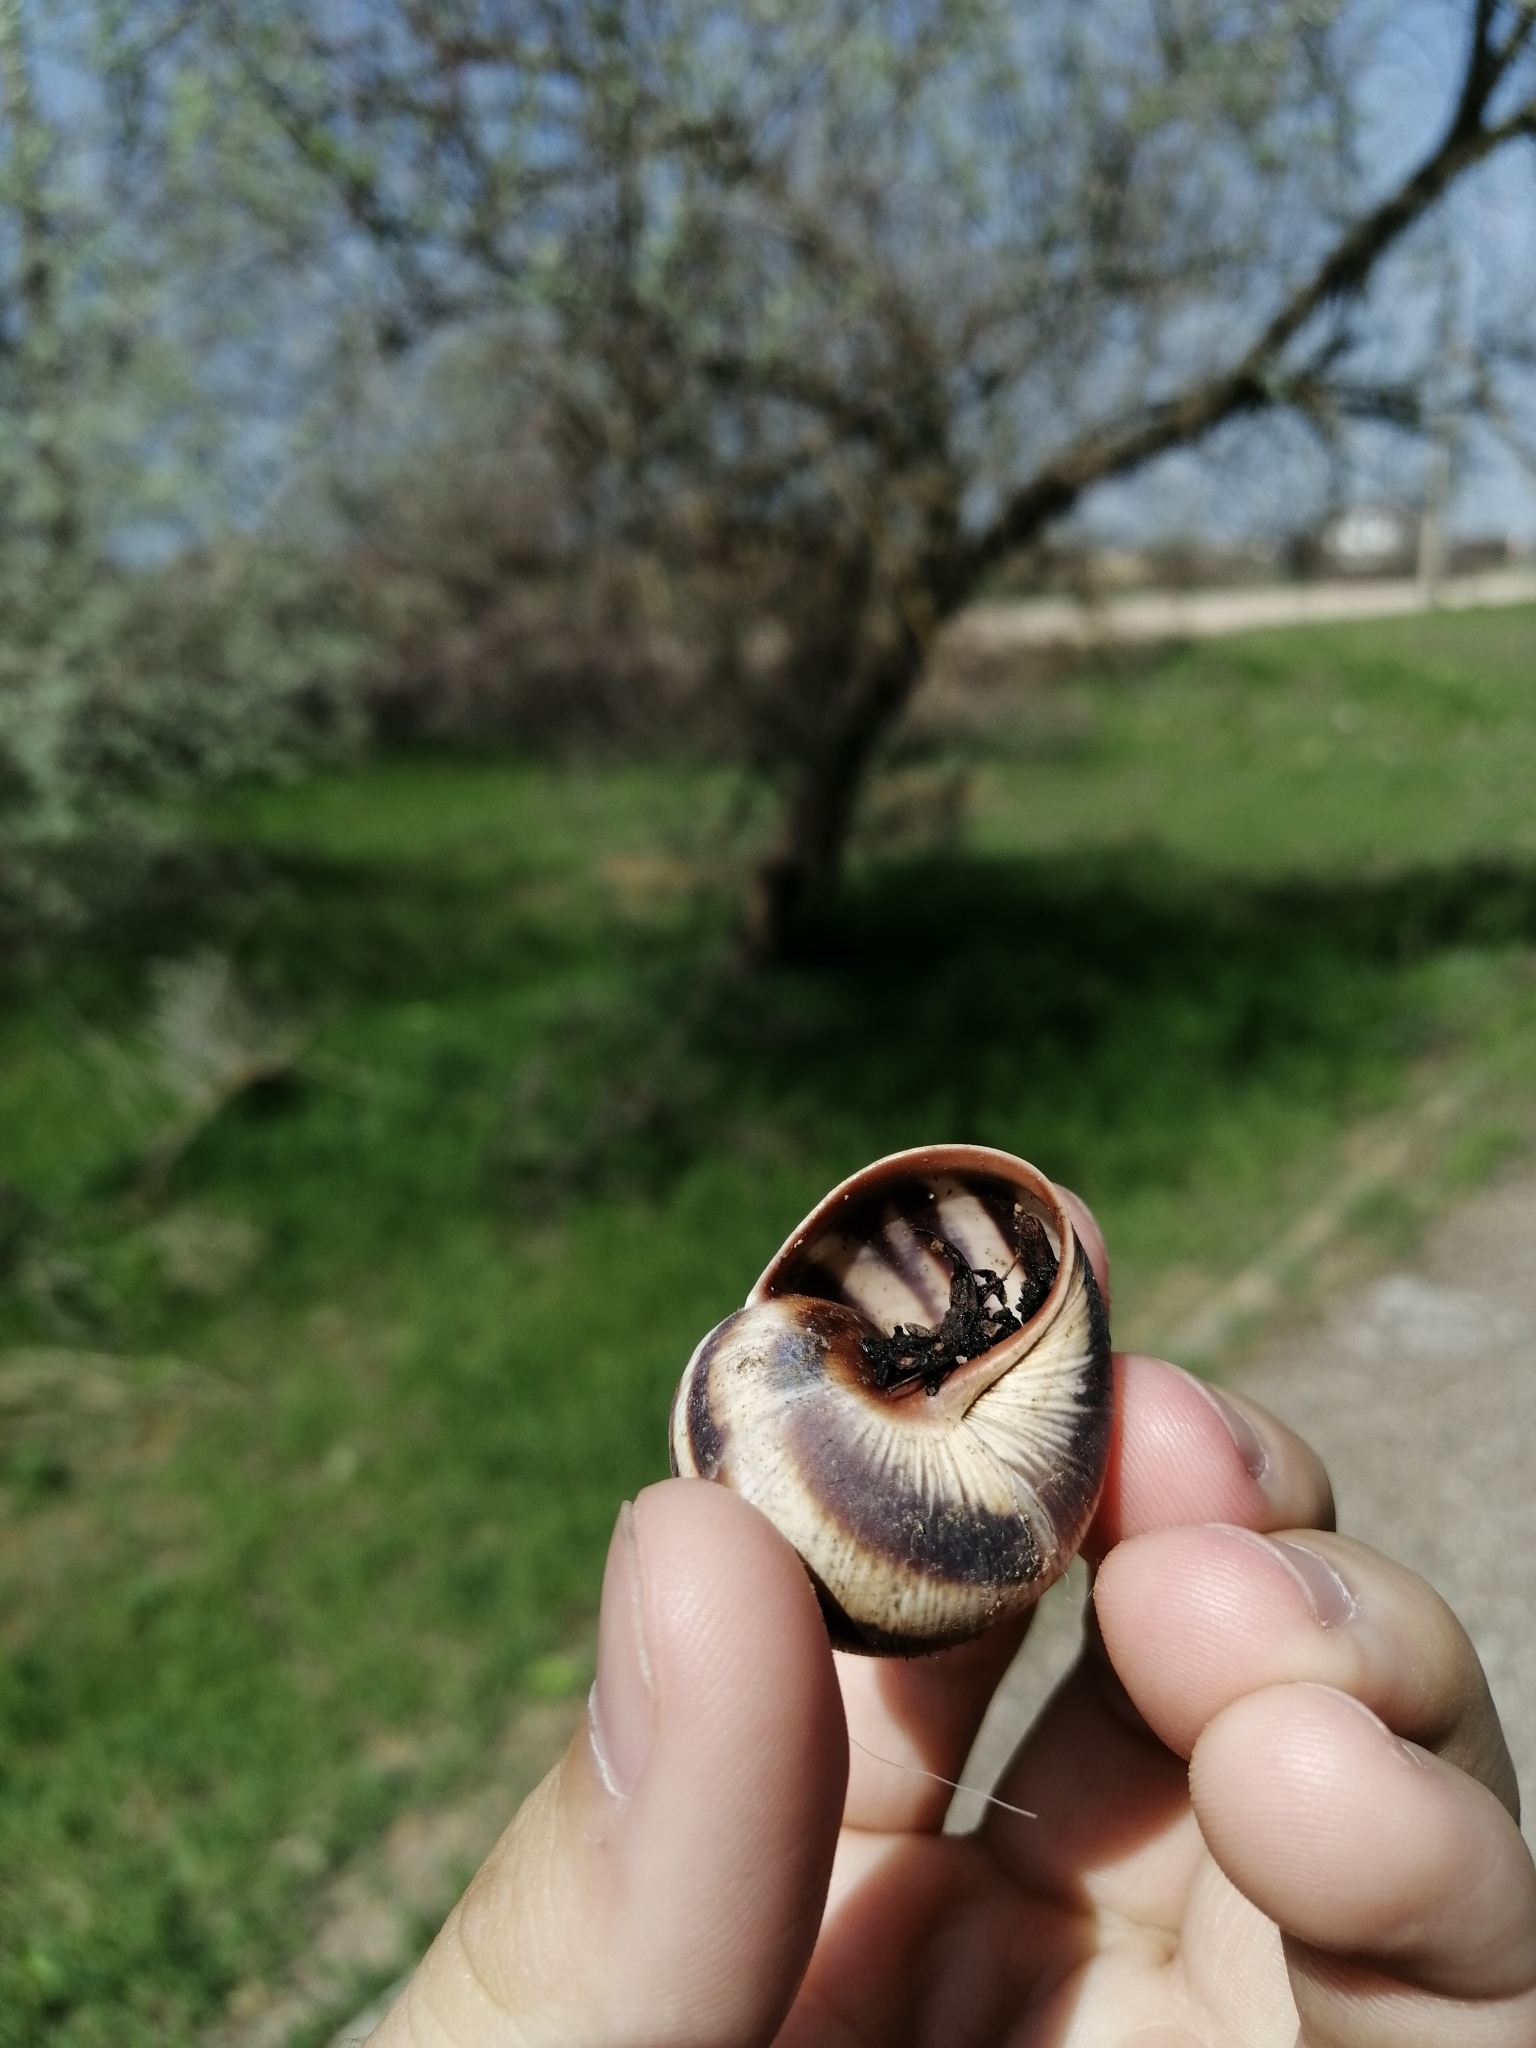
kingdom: Animalia
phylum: Mollusca
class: Gastropoda
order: Stylommatophora
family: Helicidae
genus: Helix
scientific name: Helix albescens
